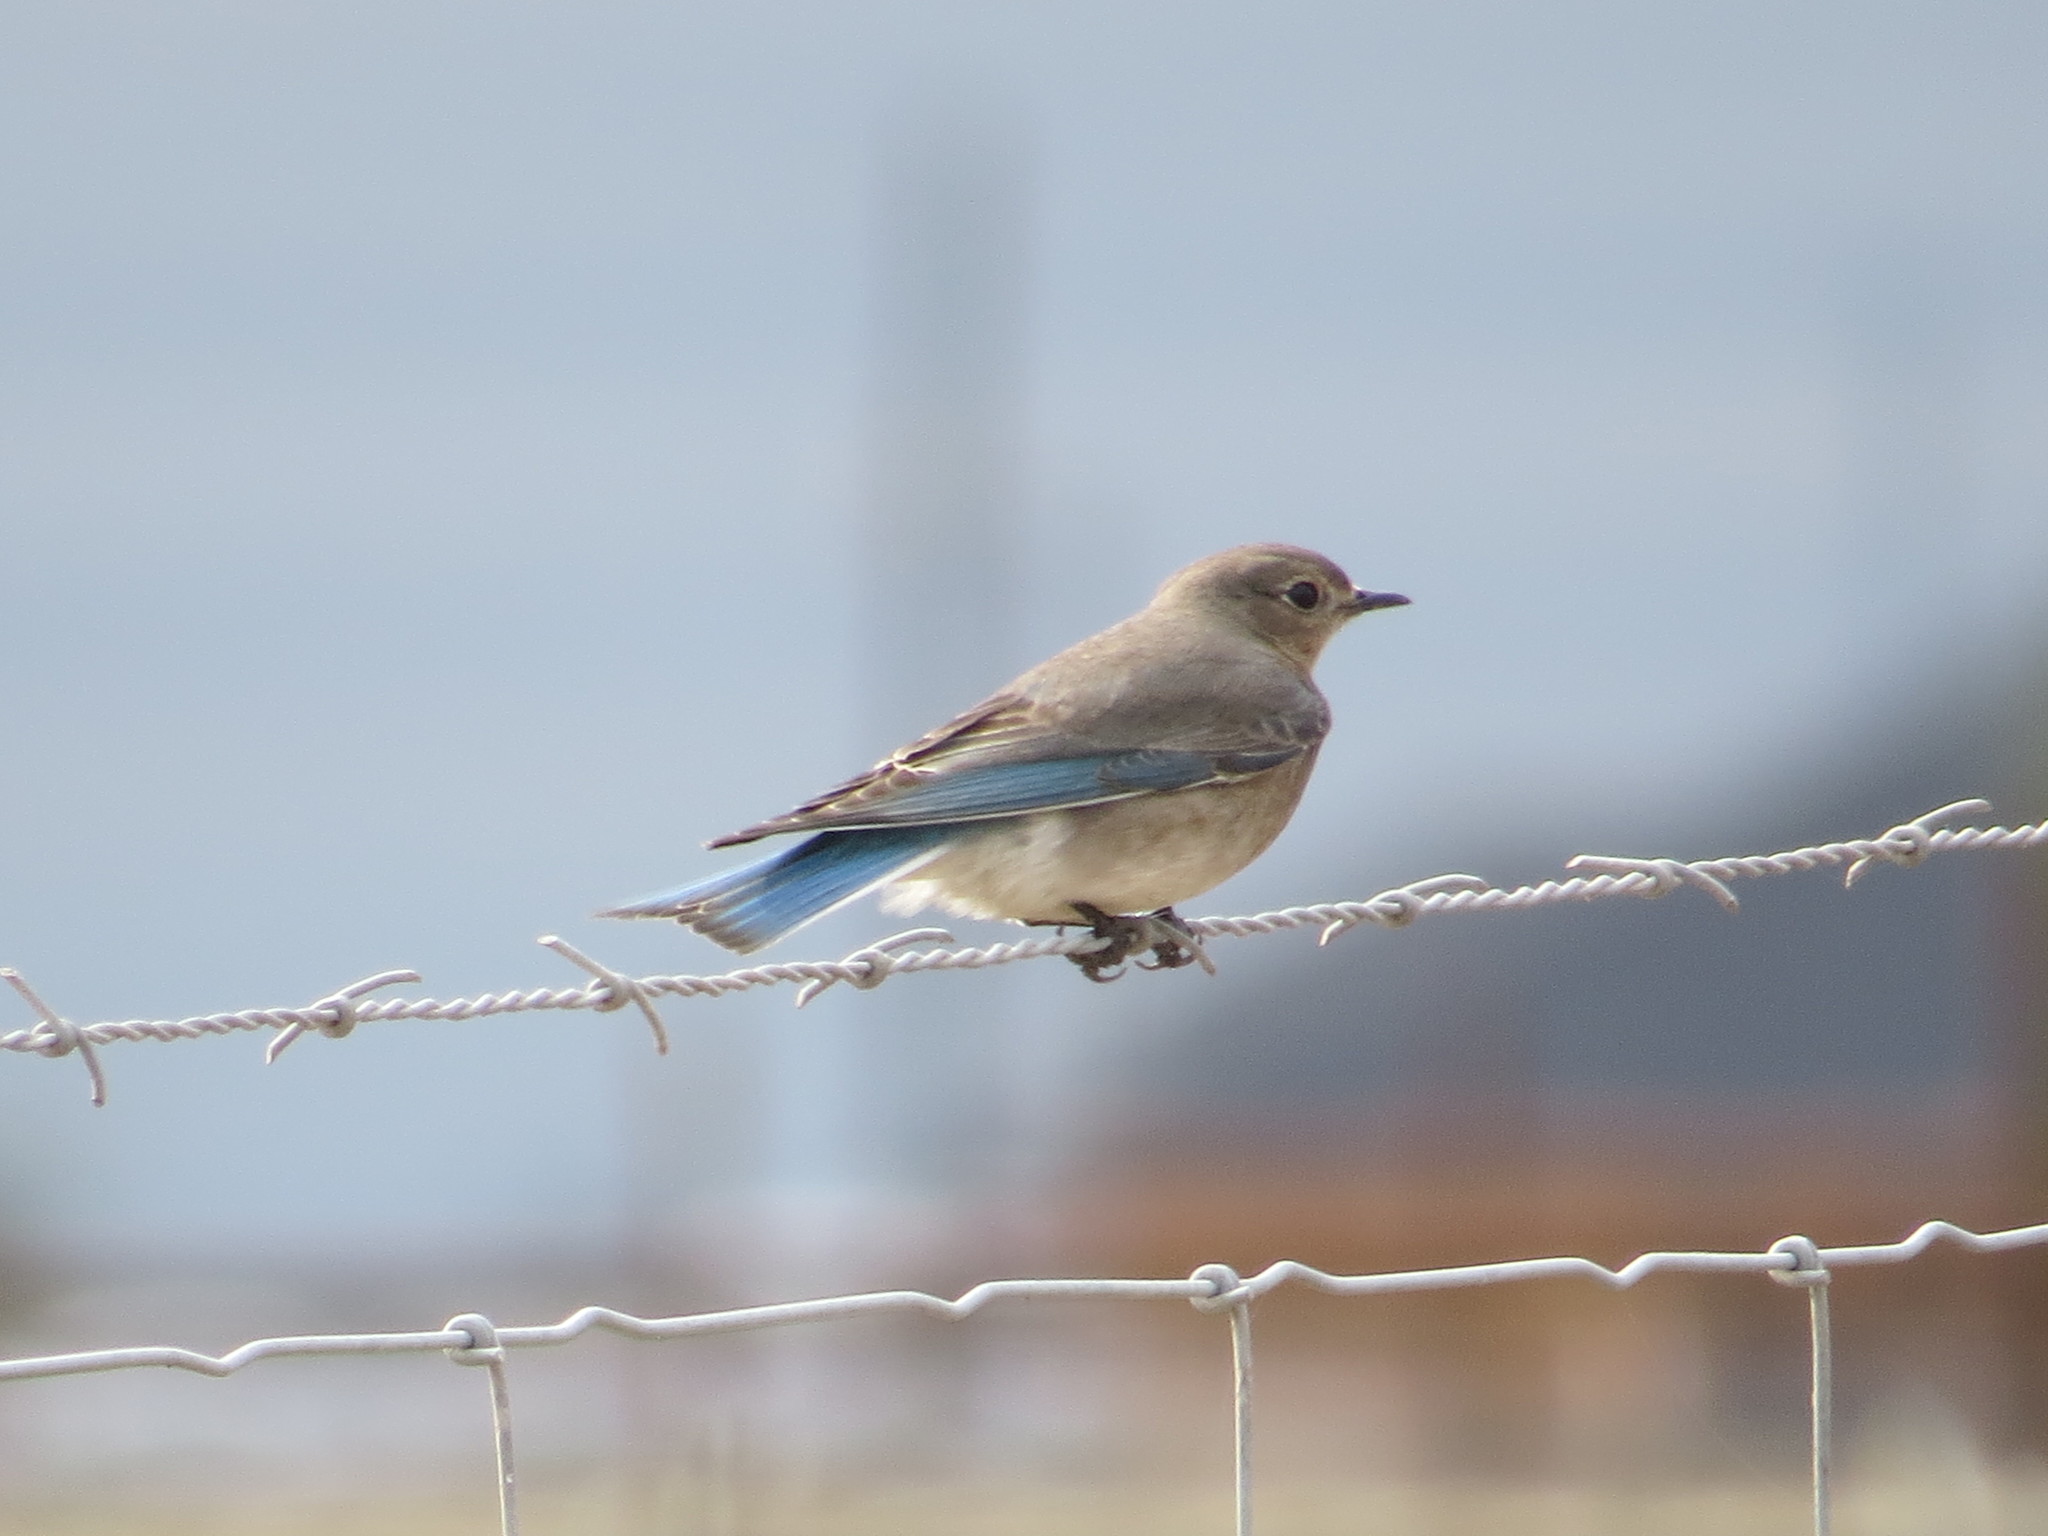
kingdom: Animalia
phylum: Chordata
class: Aves
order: Passeriformes
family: Turdidae
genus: Sialia
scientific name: Sialia currucoides
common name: Mountain bluebird
